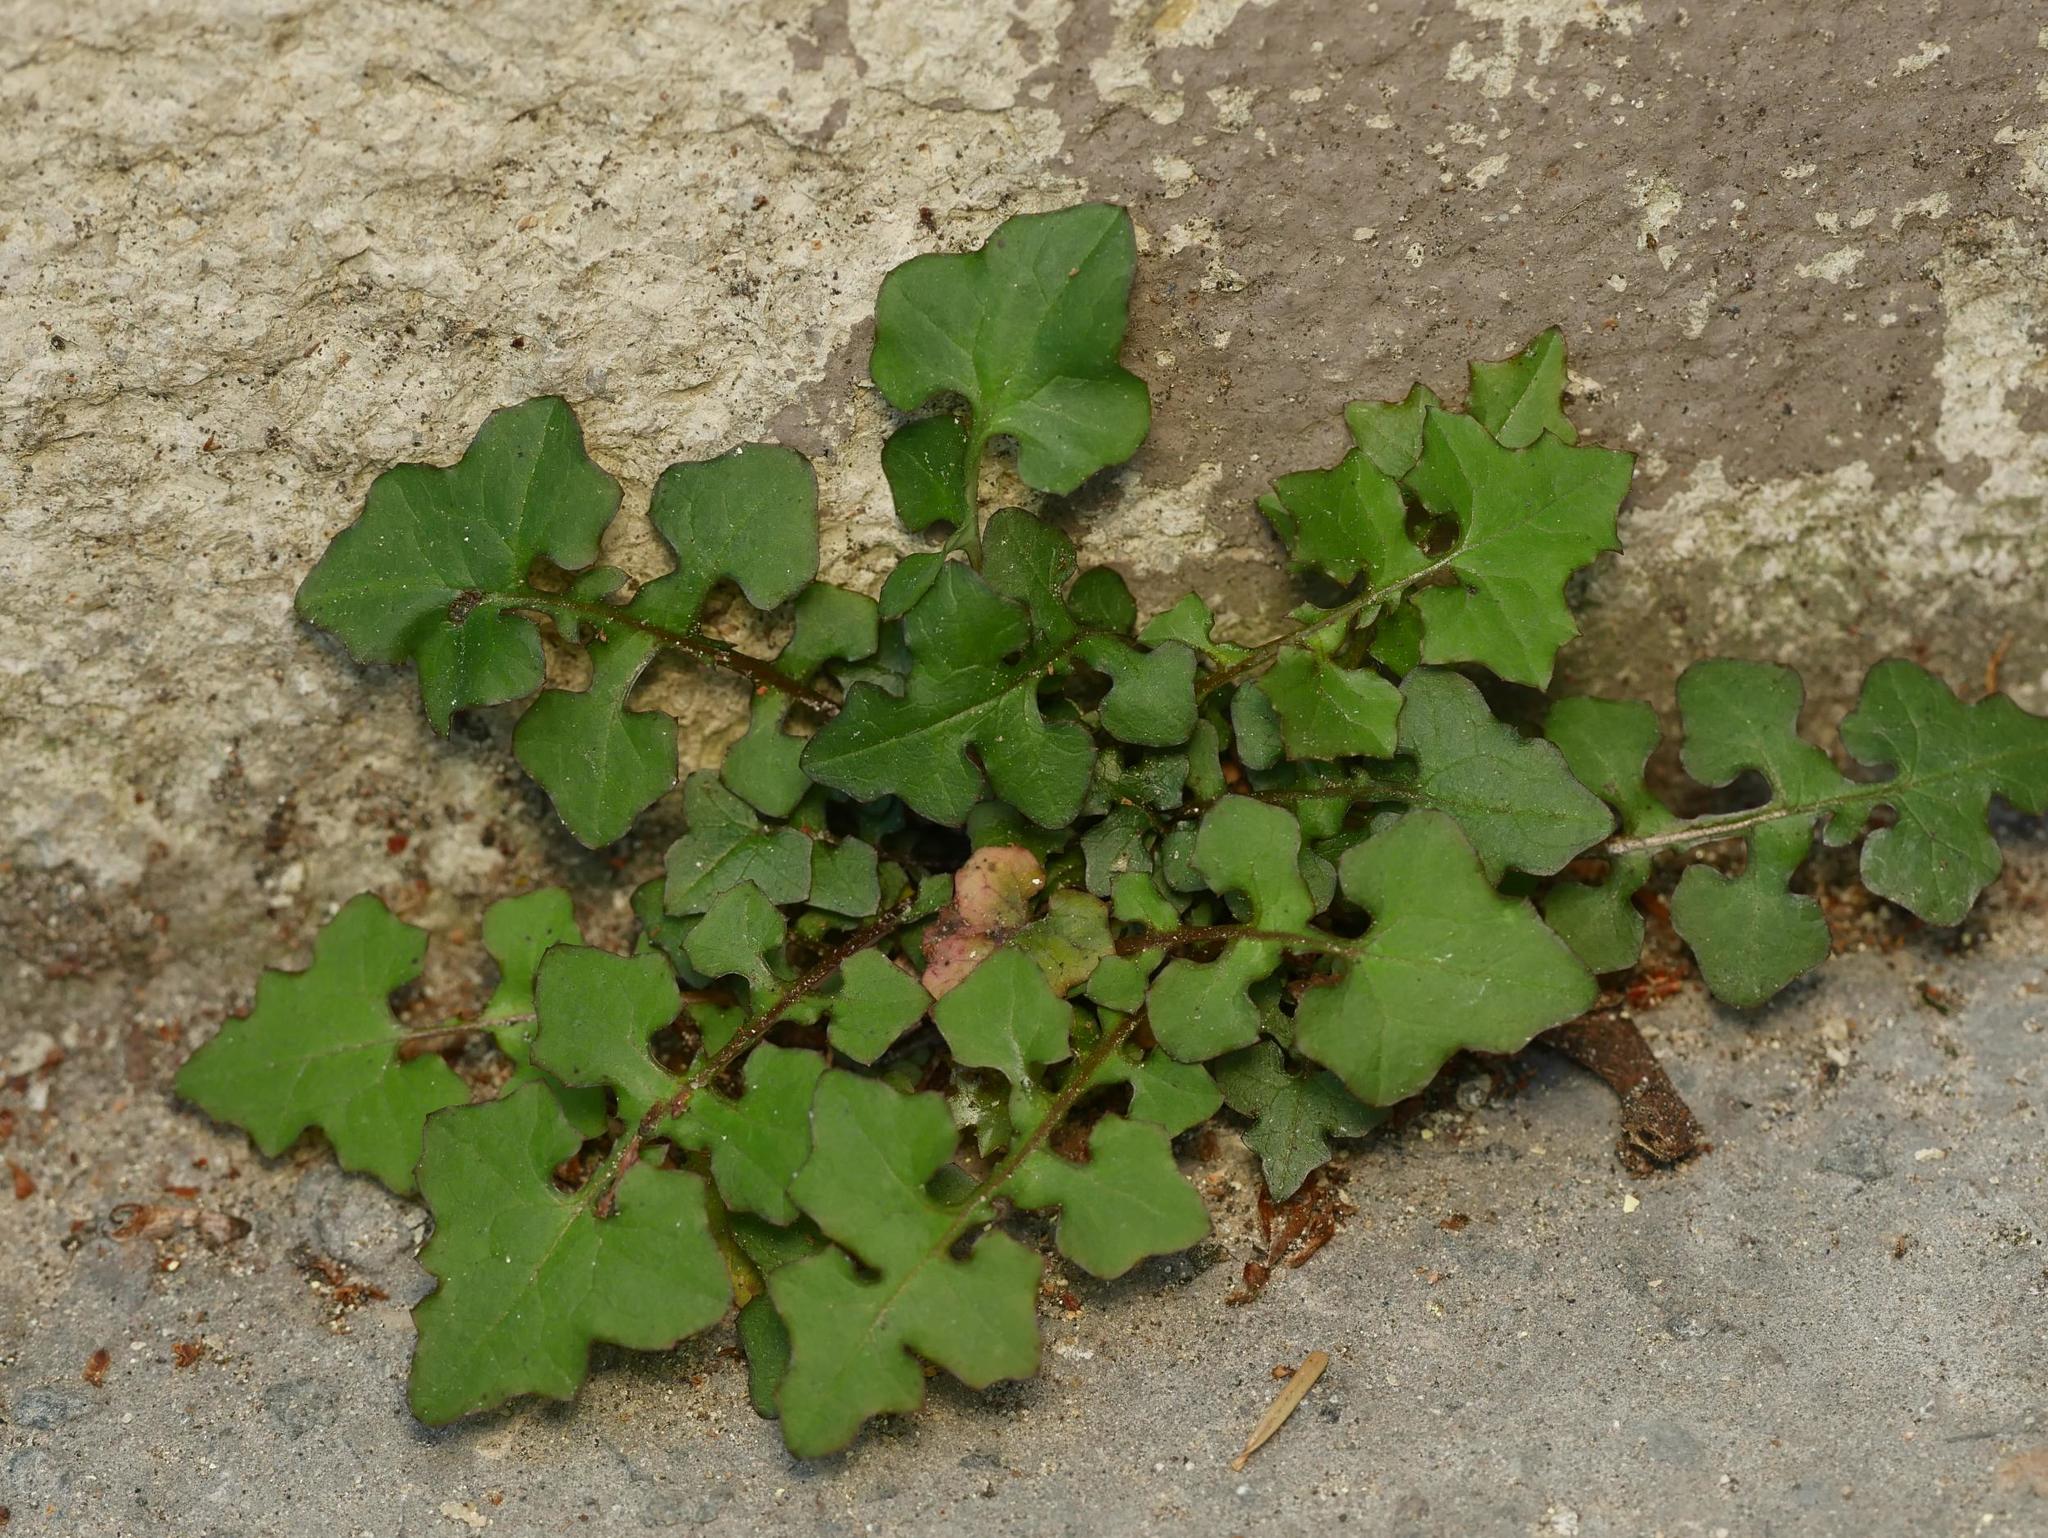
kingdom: Plantae
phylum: Tracheophyta
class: Magnoliopsida
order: Asterales
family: Asteraceae
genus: Mycelis
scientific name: Mycelis muralis
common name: Wall lettuce
